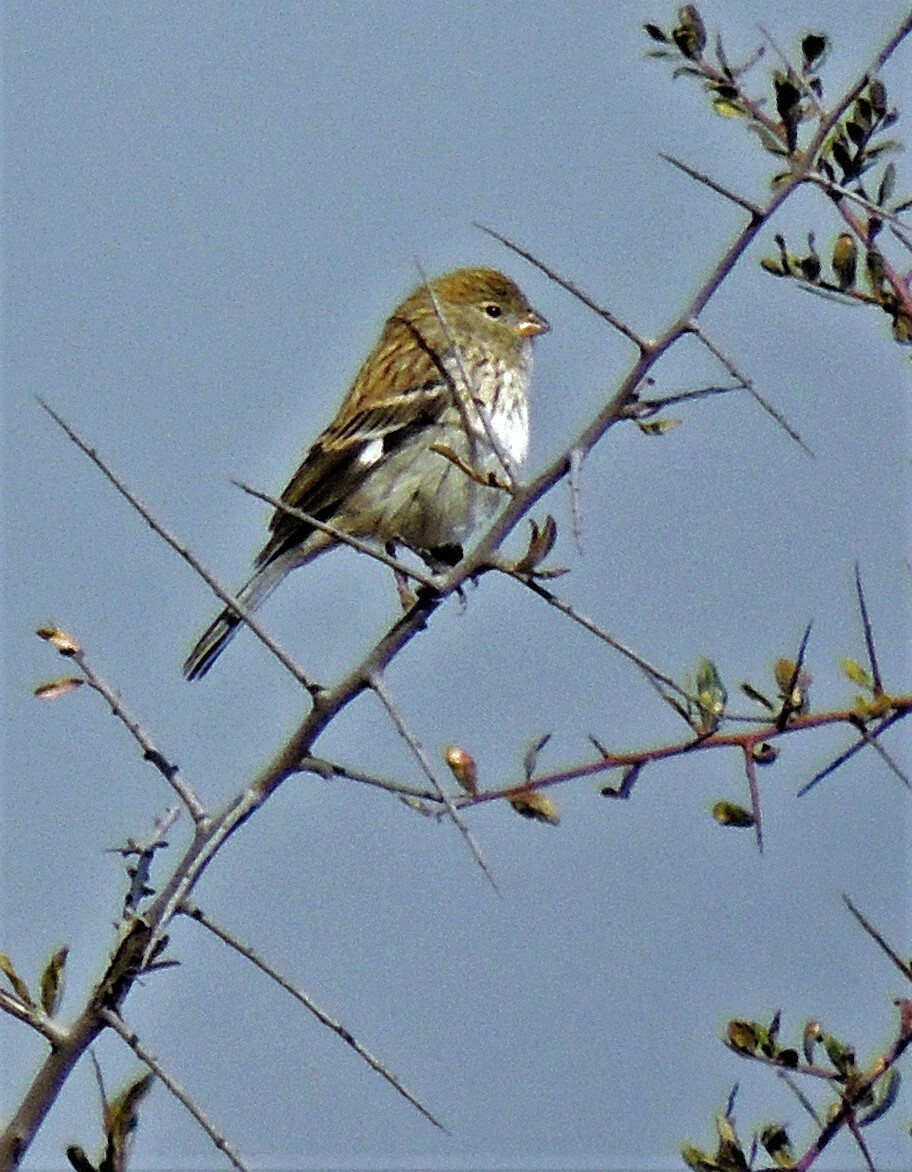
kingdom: Animalia
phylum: Chordata
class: Aves
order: Passeriformes
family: Thraupidae
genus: Catamenia
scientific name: Catamenia analis
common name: Band-tailed seedeater
